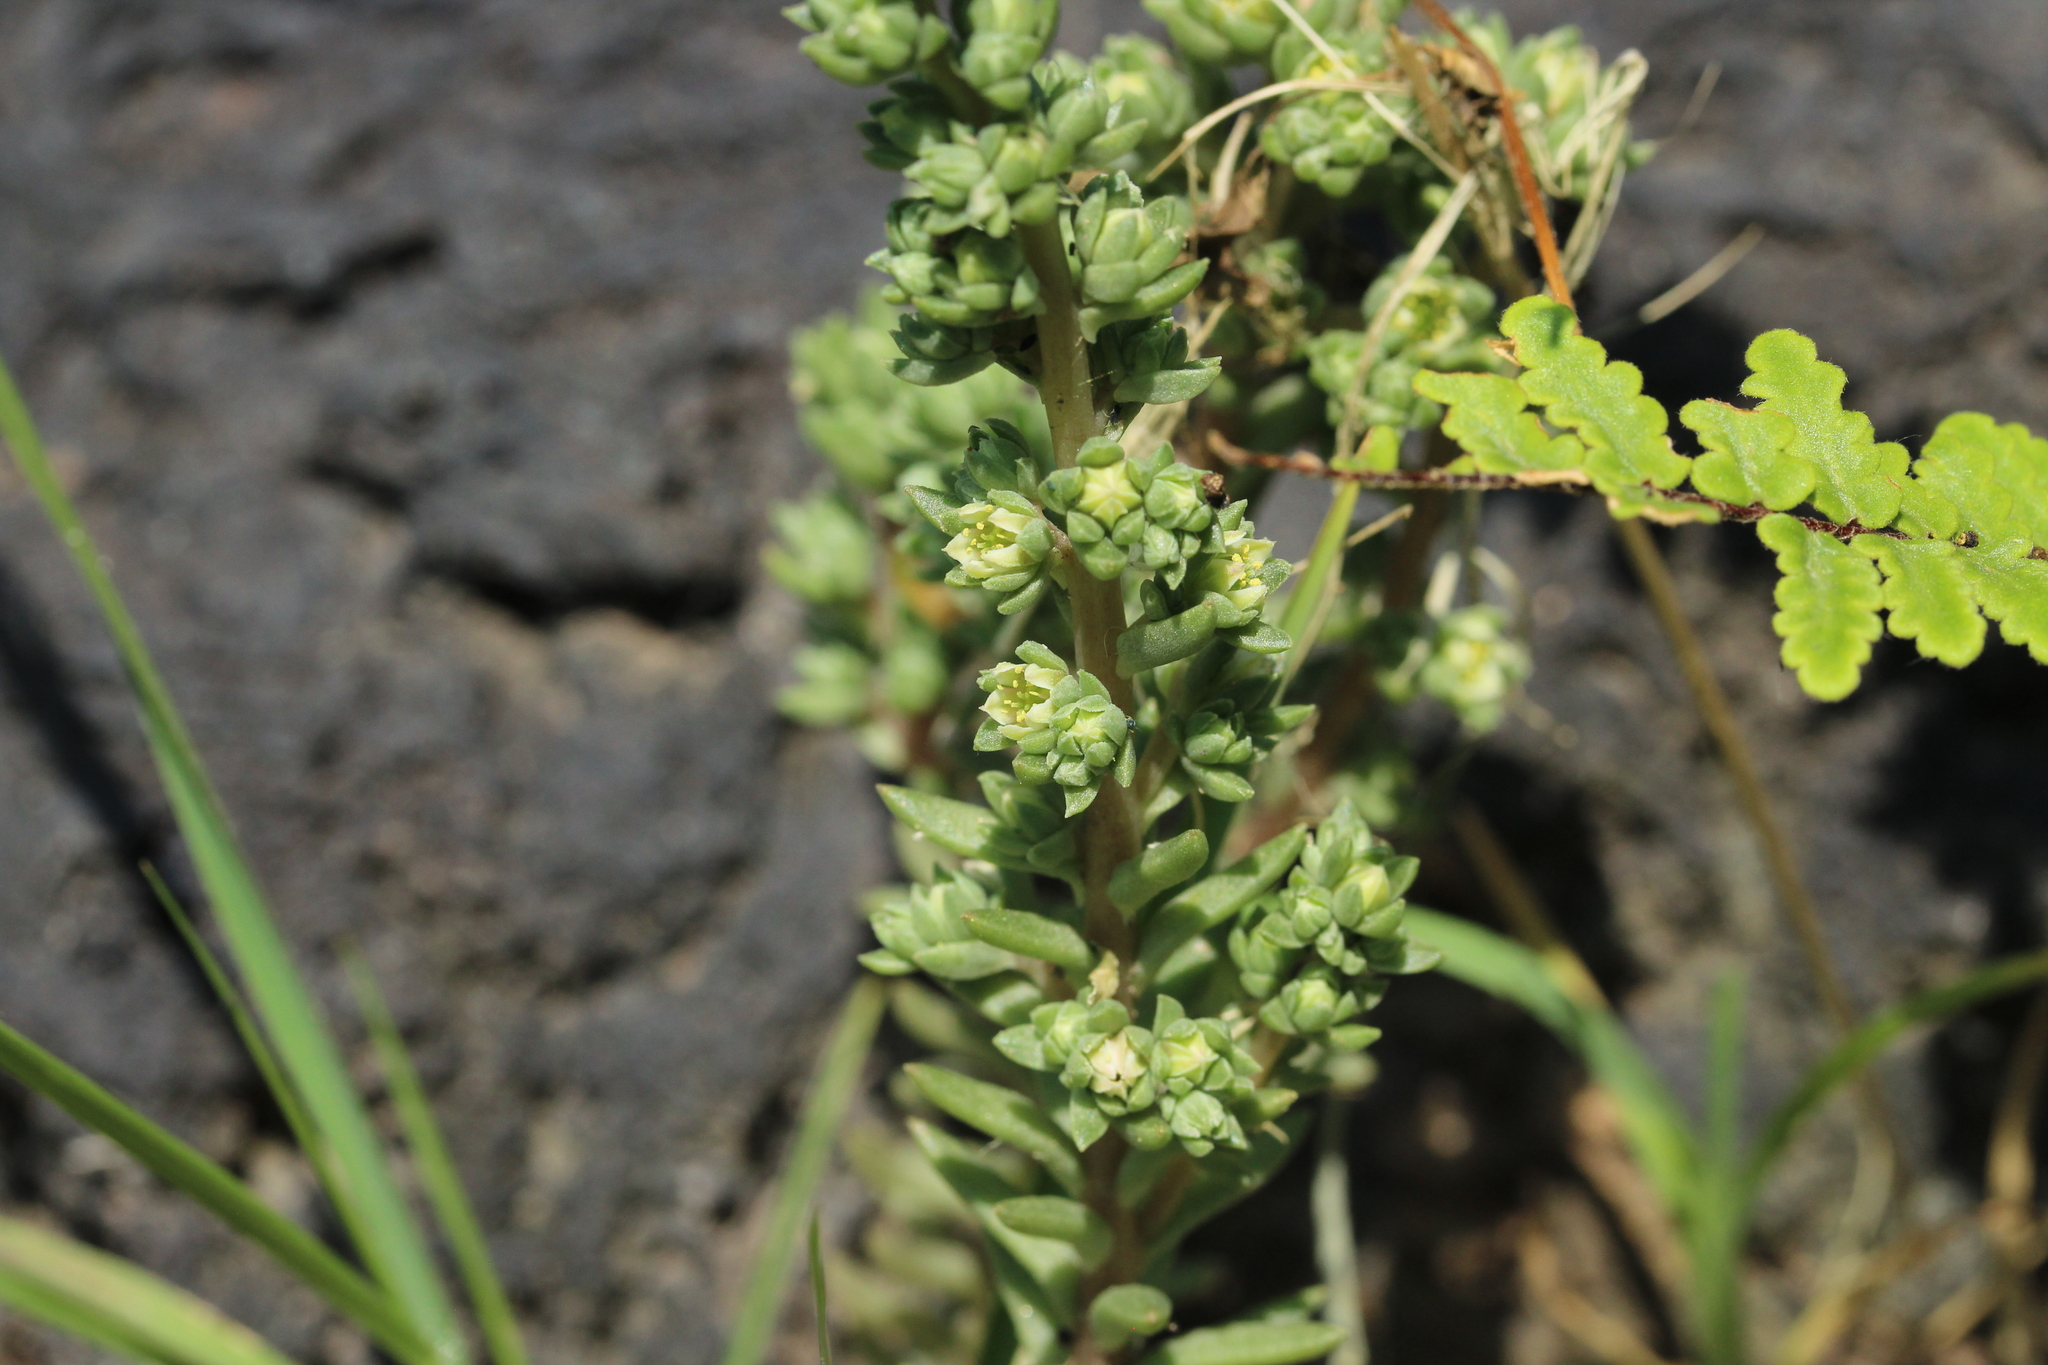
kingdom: Plantae
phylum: Tracheophyta
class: Magnoliopsida
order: Saxifragales
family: Crassulaceae
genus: Villadia
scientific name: Villadia misera
